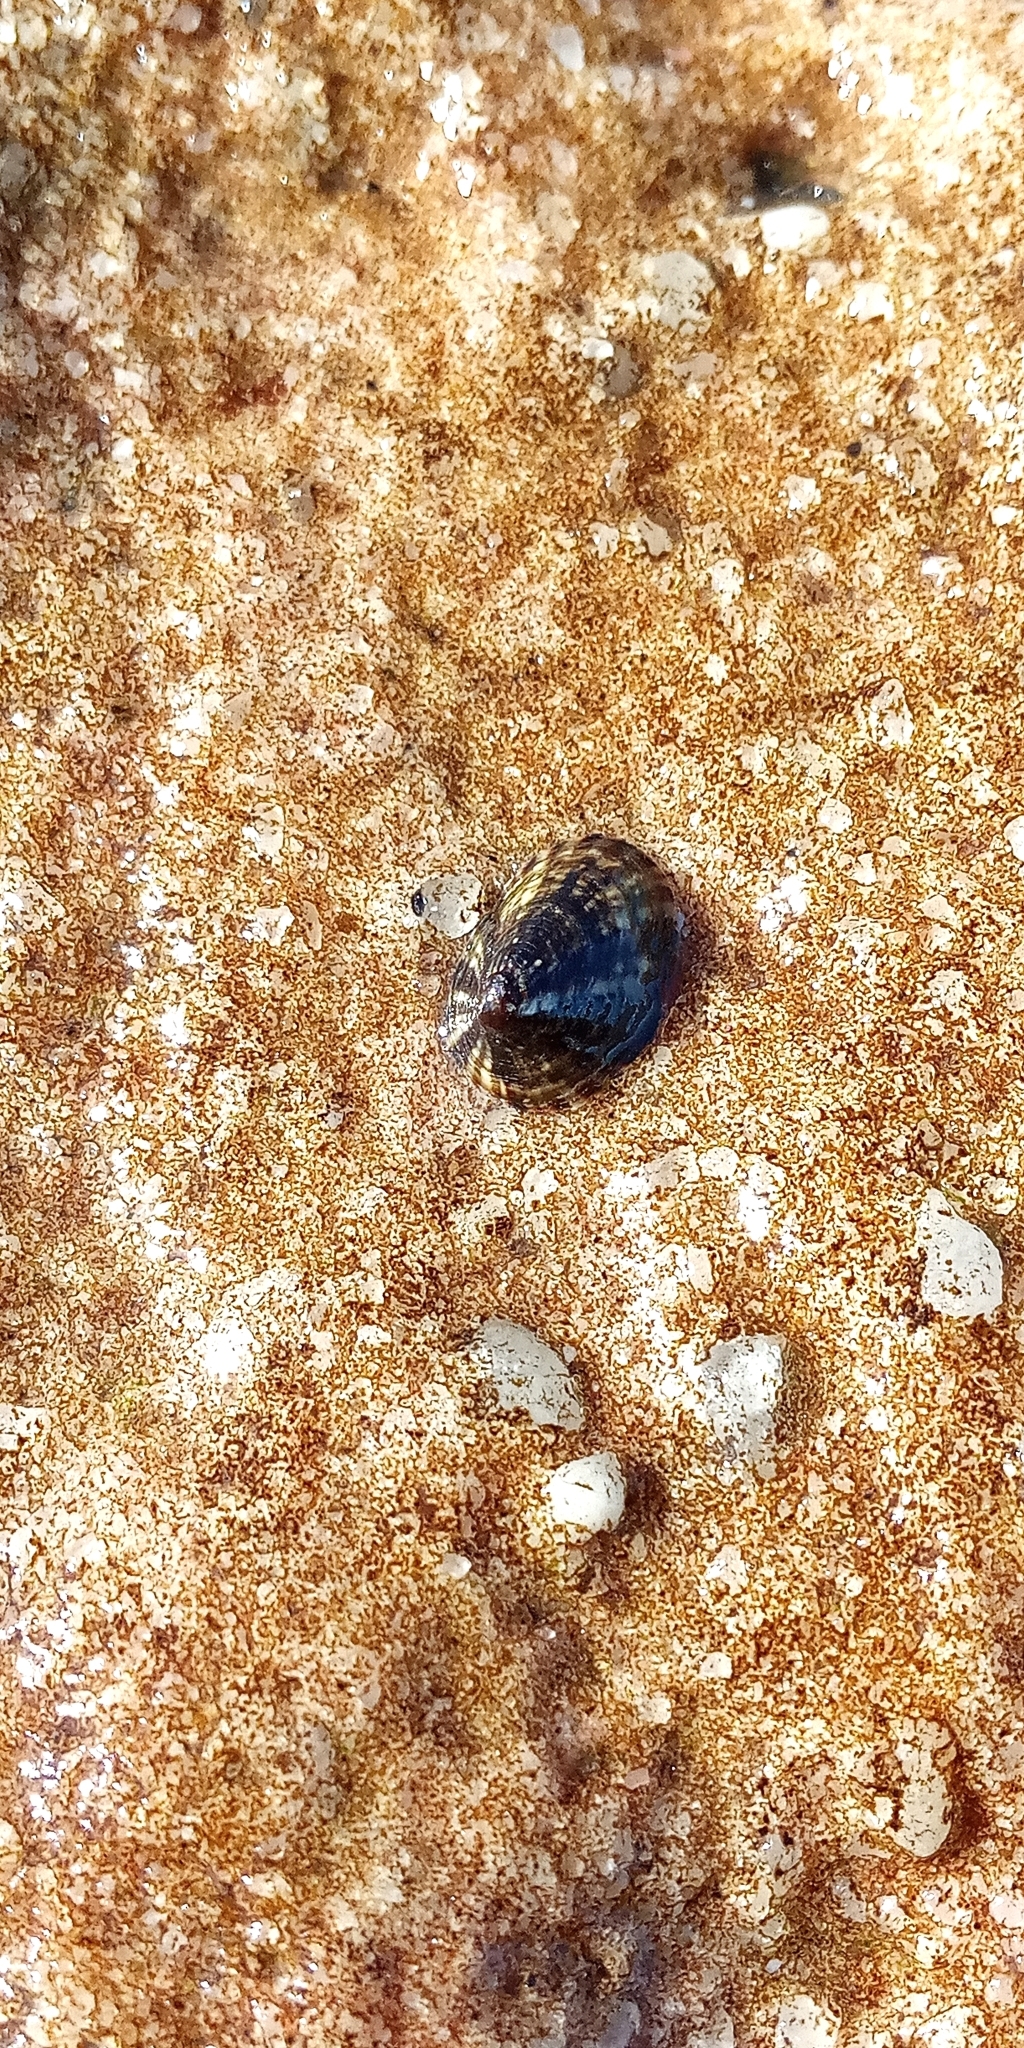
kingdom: Animalia
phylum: Mollusca
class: Gastropoda
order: Siphonariida
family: Siphonariidae
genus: Siphonaria
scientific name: Siphonaria lessonii
